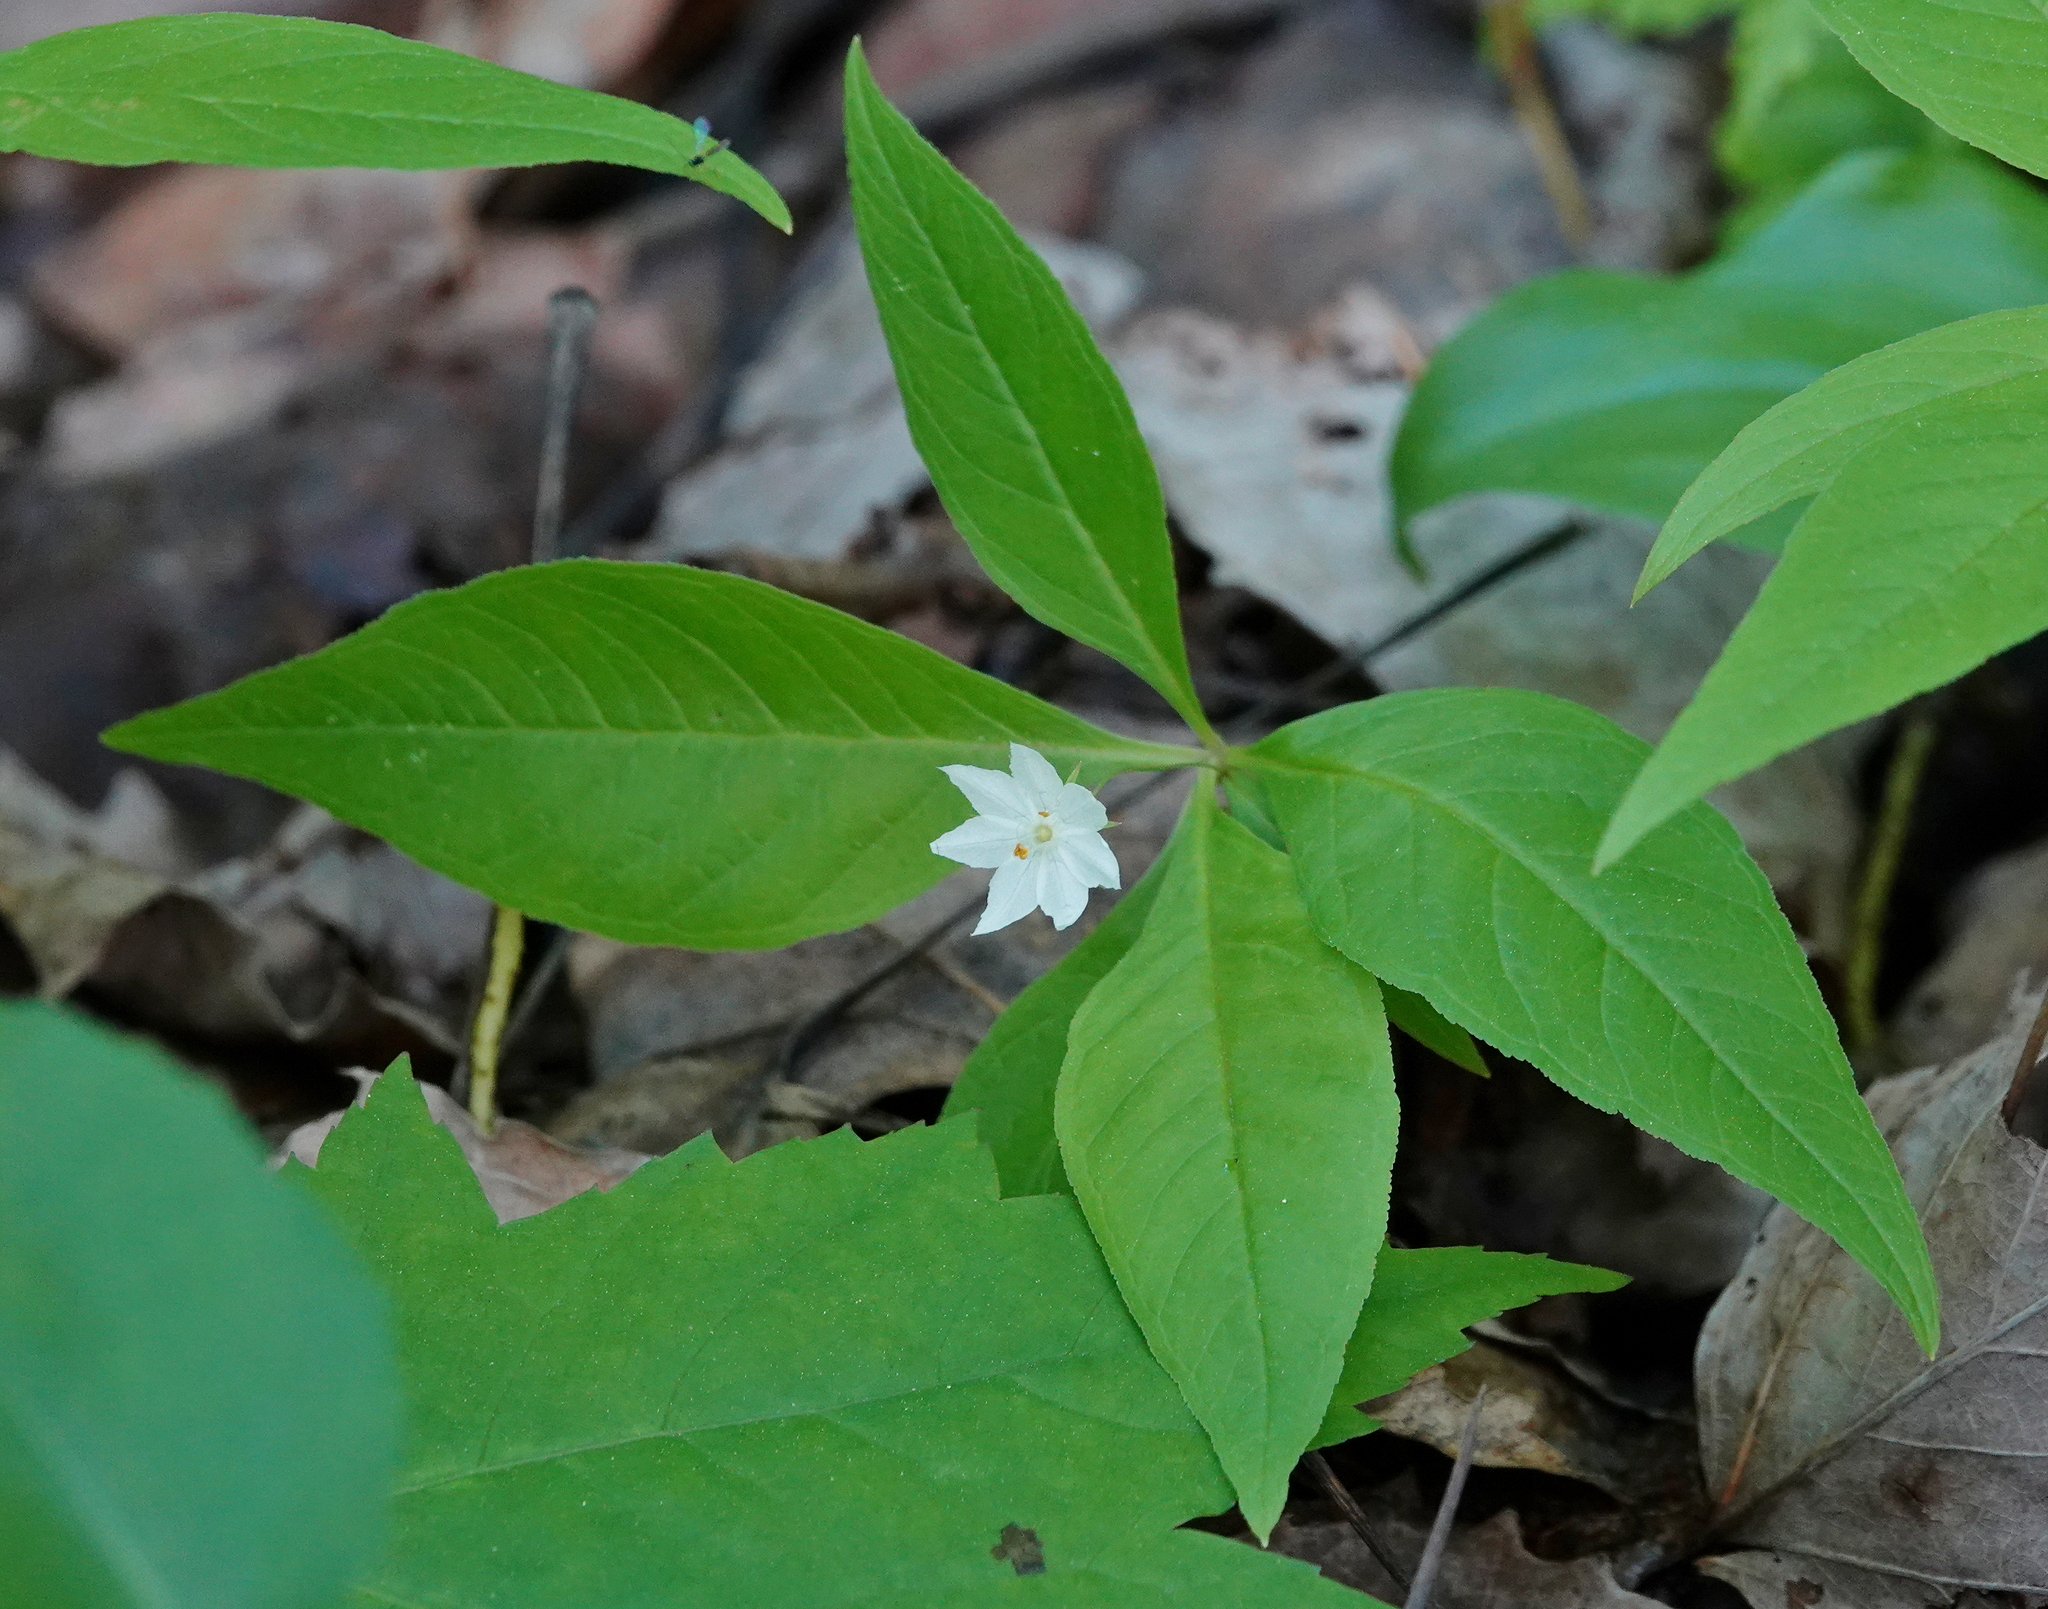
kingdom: Plantae
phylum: Tracheophyta
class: Magnoliopsida
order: Ericales
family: Primulaceae
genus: Lysimachia
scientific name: Lysimachia borealis
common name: American starflower
